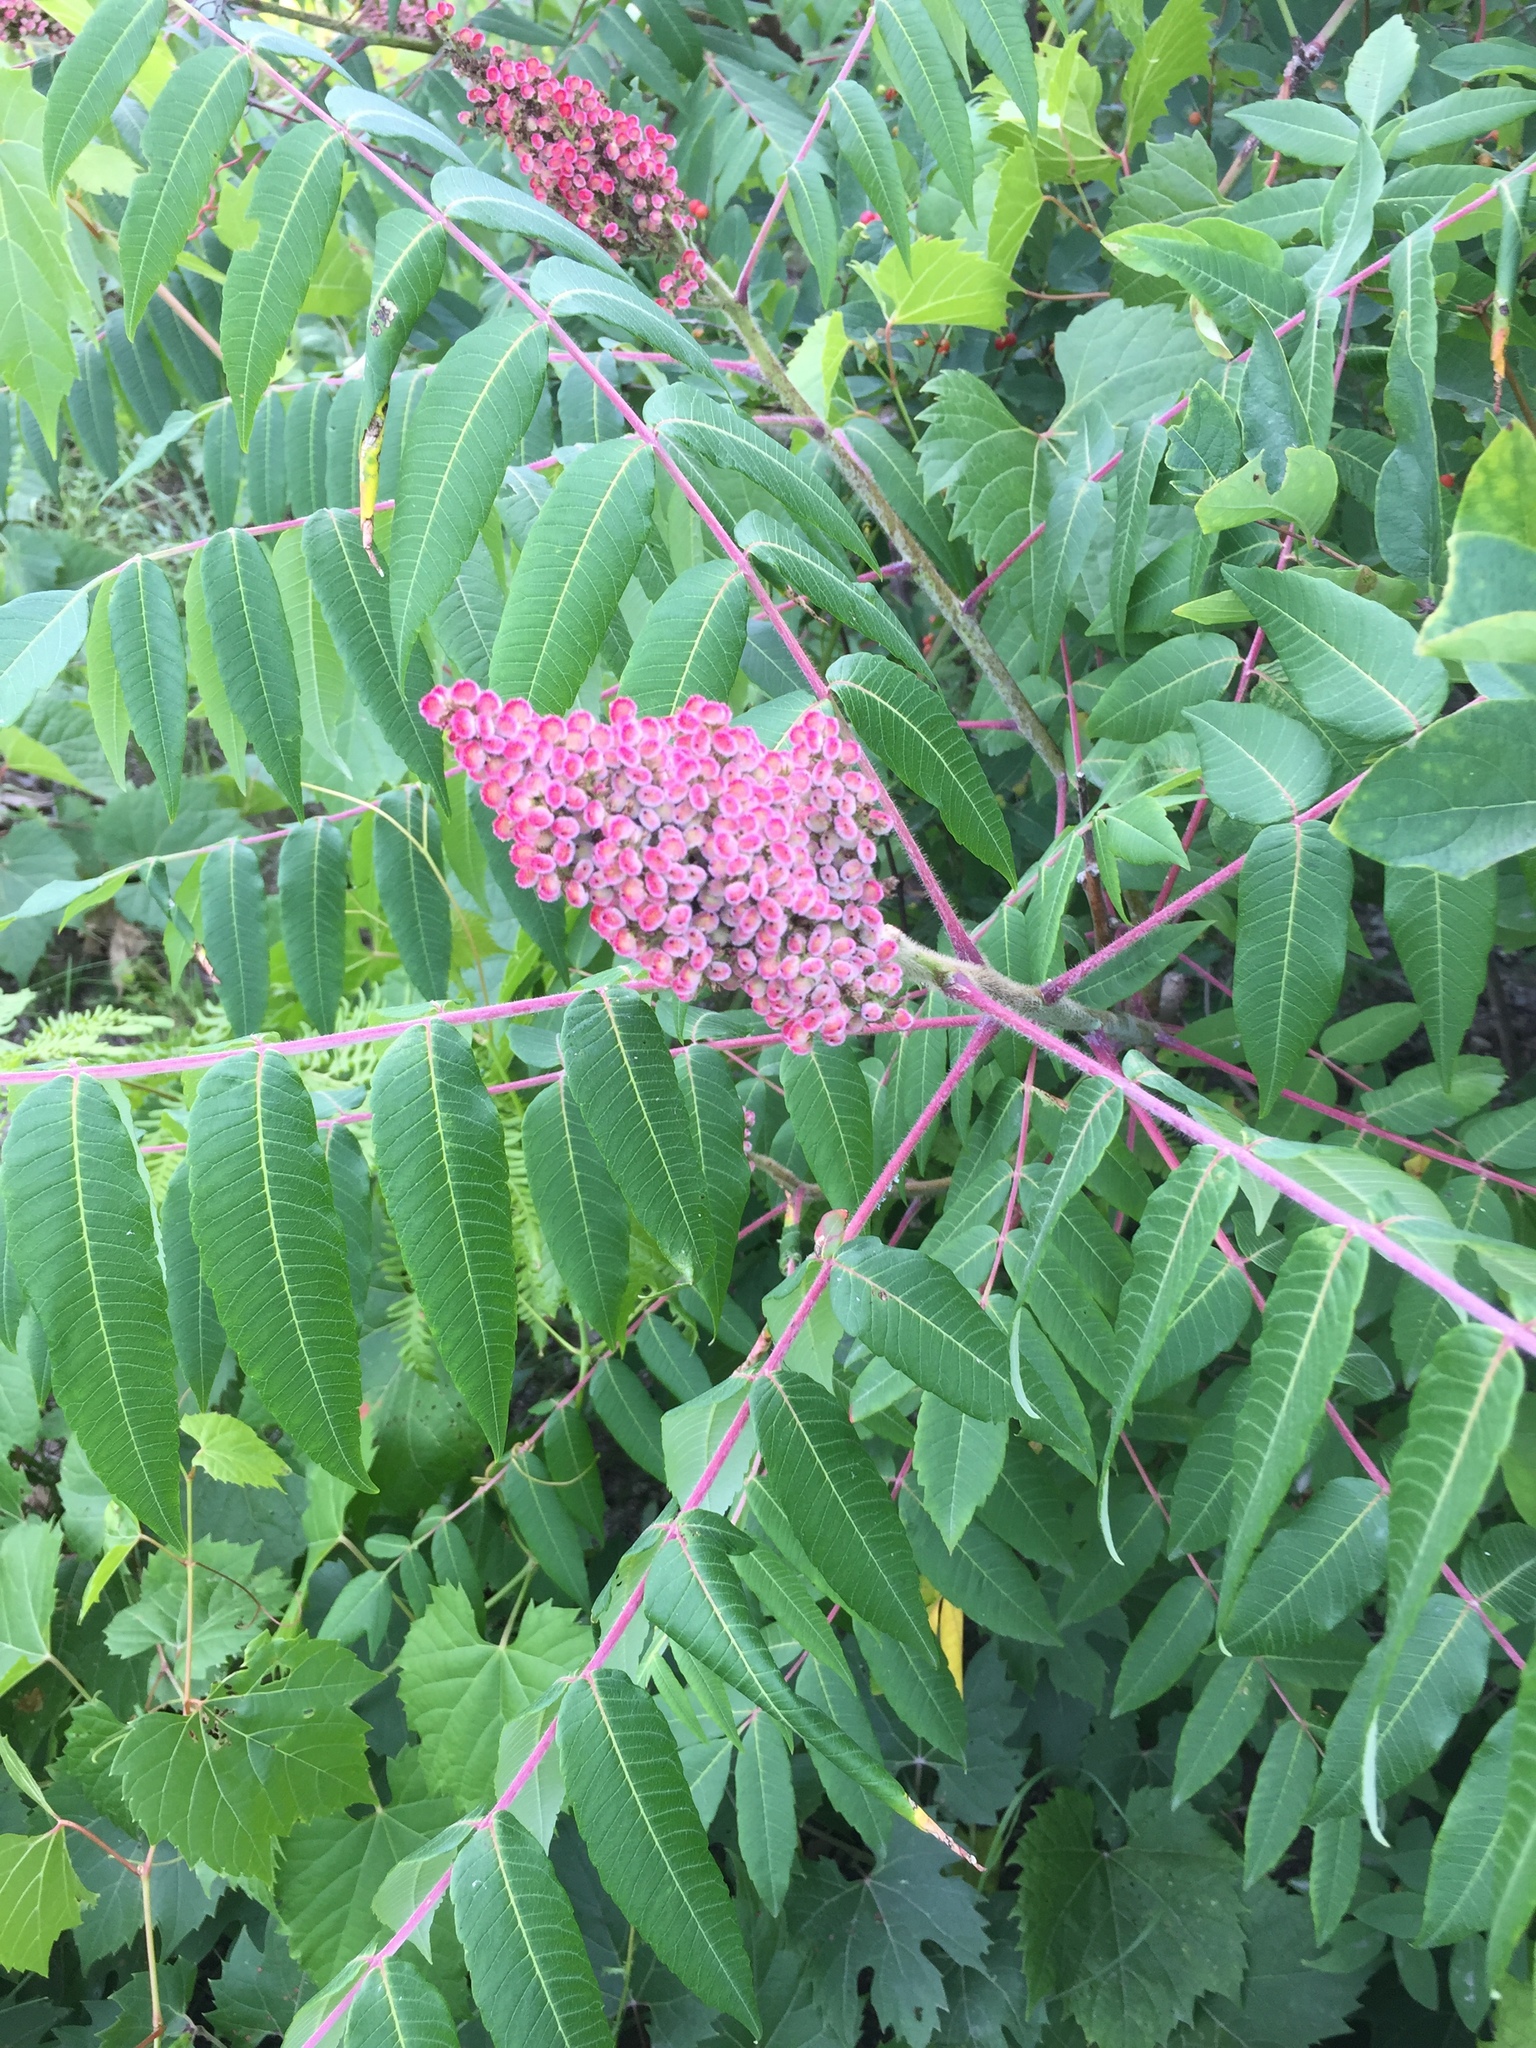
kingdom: Plantae
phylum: Tracheophyta
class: Magnoliopsida
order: Sapindales
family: Anacardiaceae
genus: Rhus
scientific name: Rhus typhina
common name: Staghorn sumac
